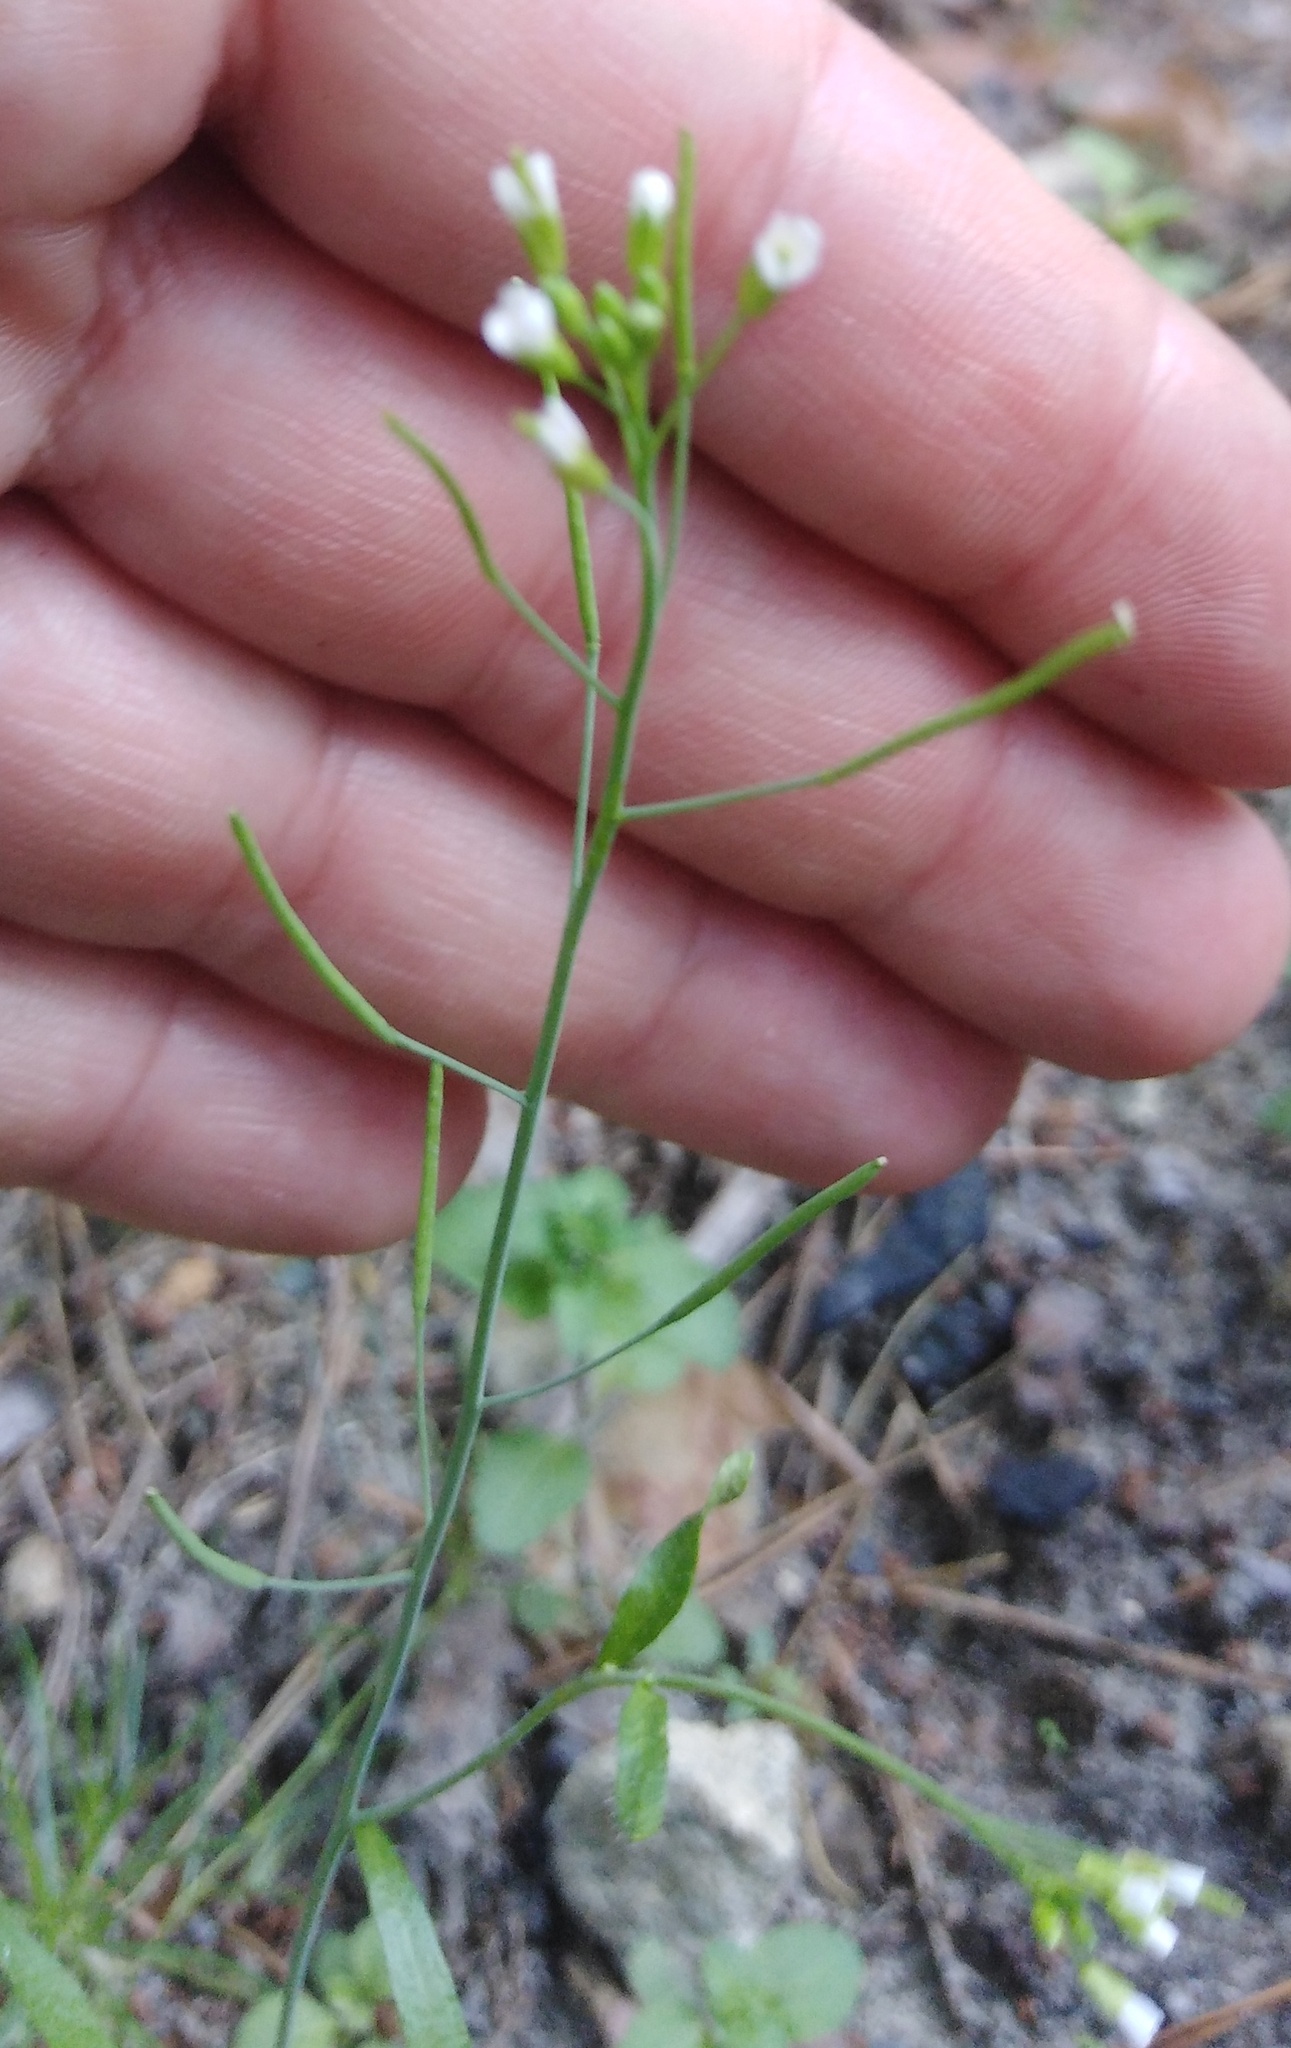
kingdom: Plantae
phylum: Tracheophyta
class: Magnoliopsida
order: Brassicales
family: Brassicaceae
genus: Arabidopsis
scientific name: Arabidopsis thaliana
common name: Thale cress
